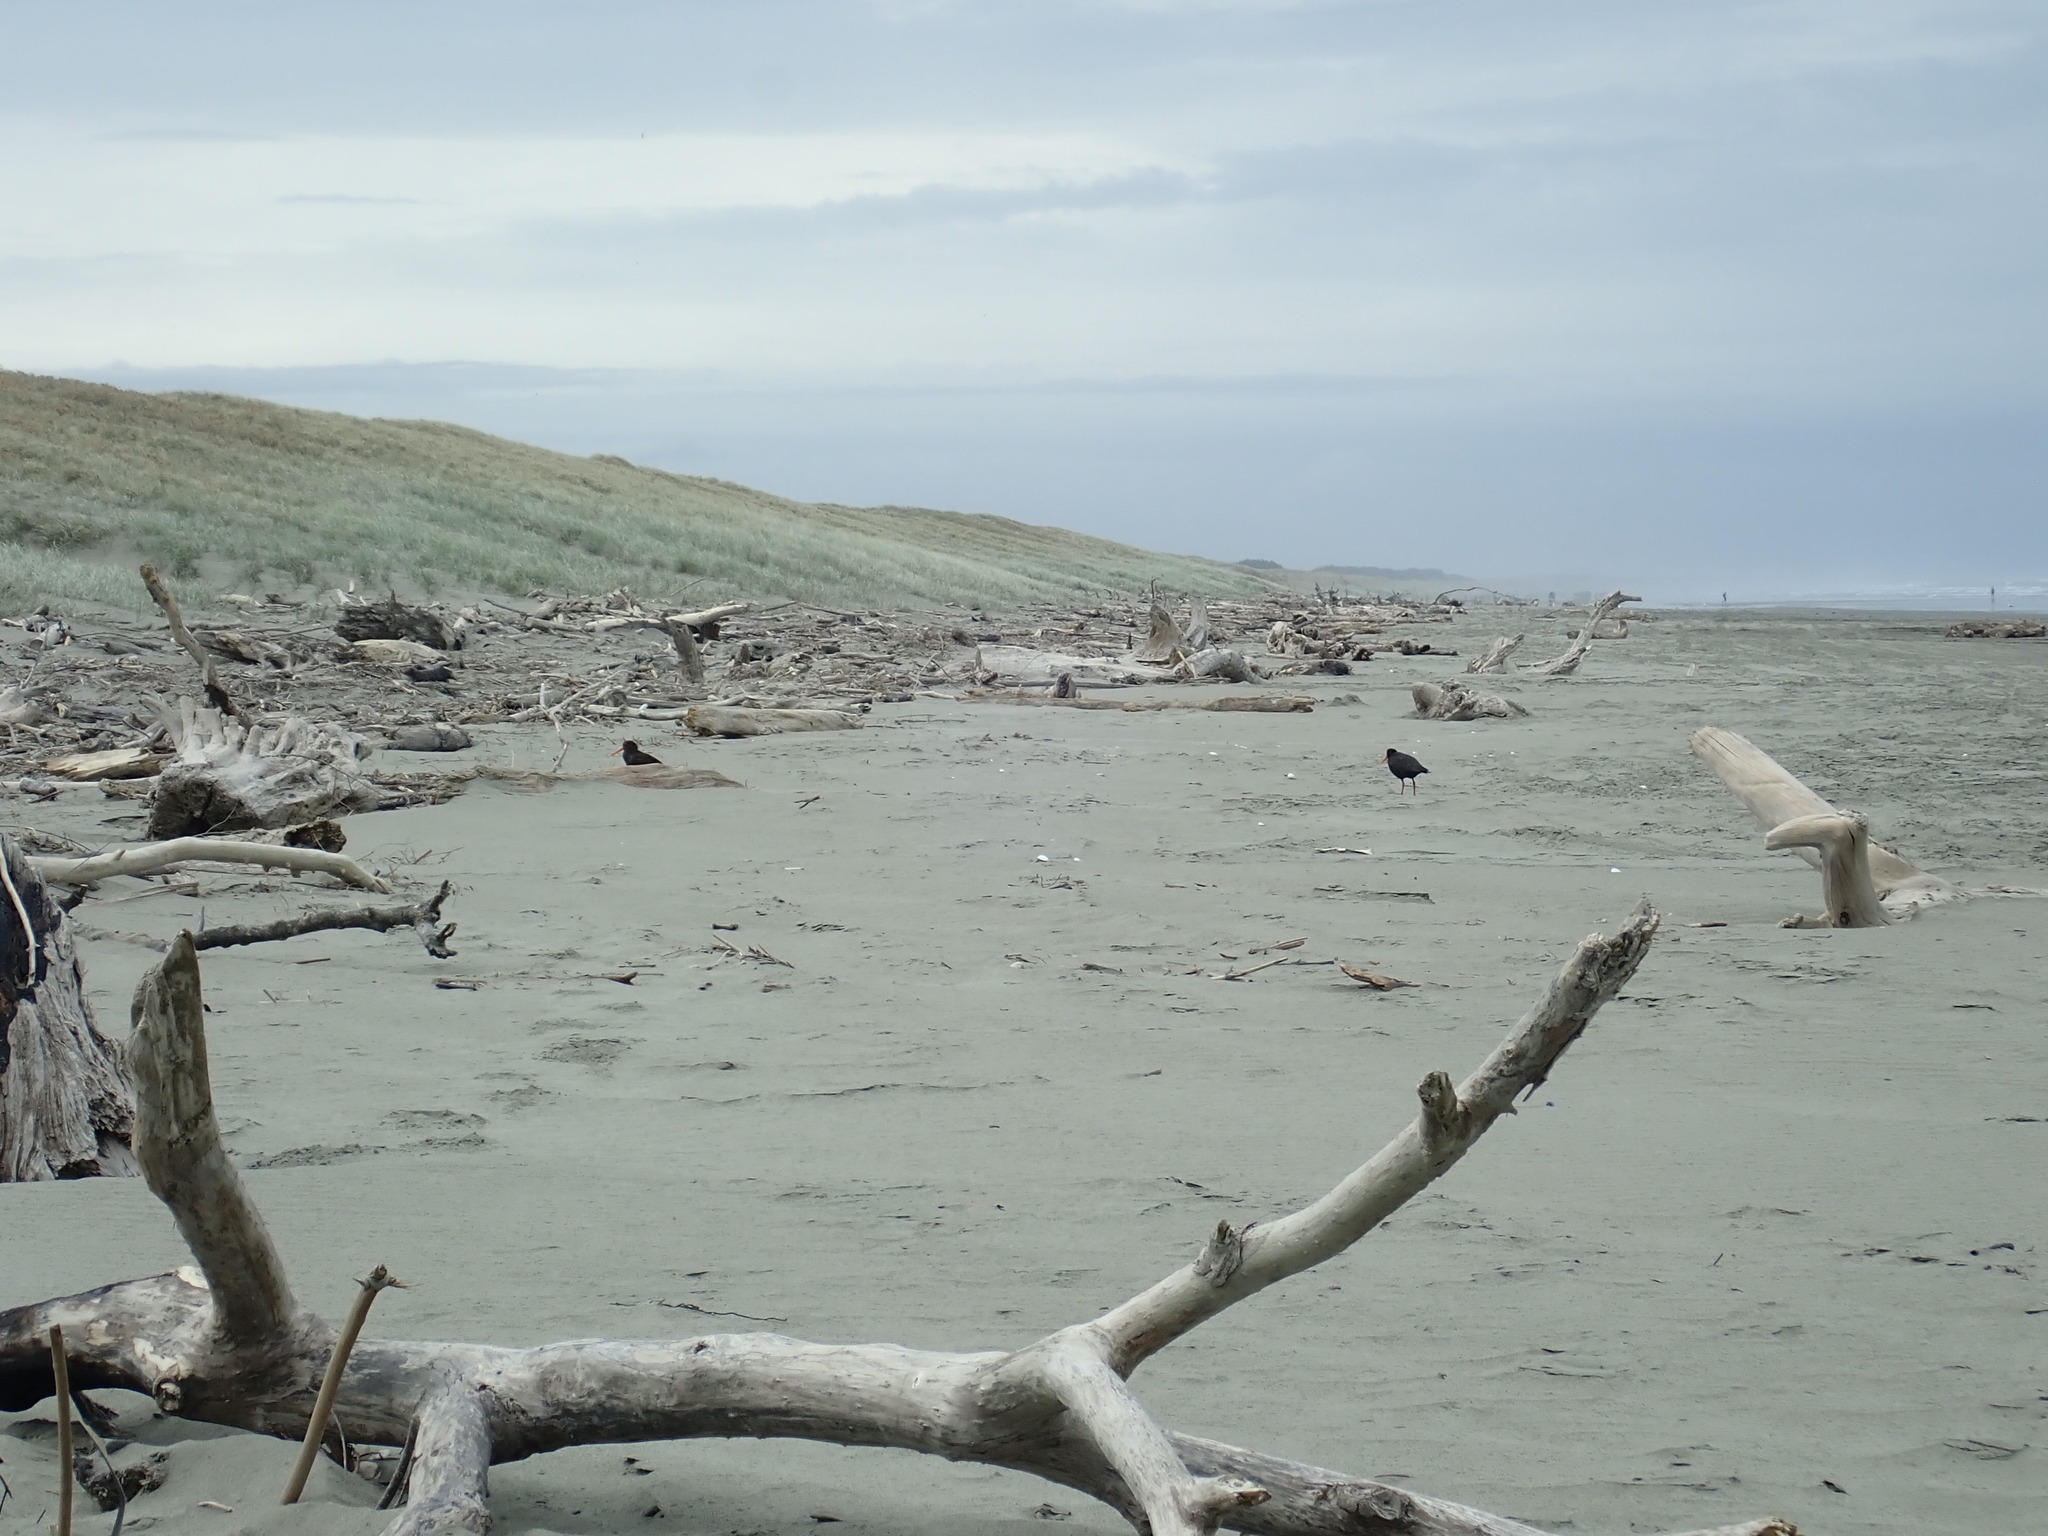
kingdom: Animalia
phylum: Chordata
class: Aves
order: Charadriiformes
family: Haematopodidae
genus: Haematopus
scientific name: Haematopus unicolor
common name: Variable oystercatcher
